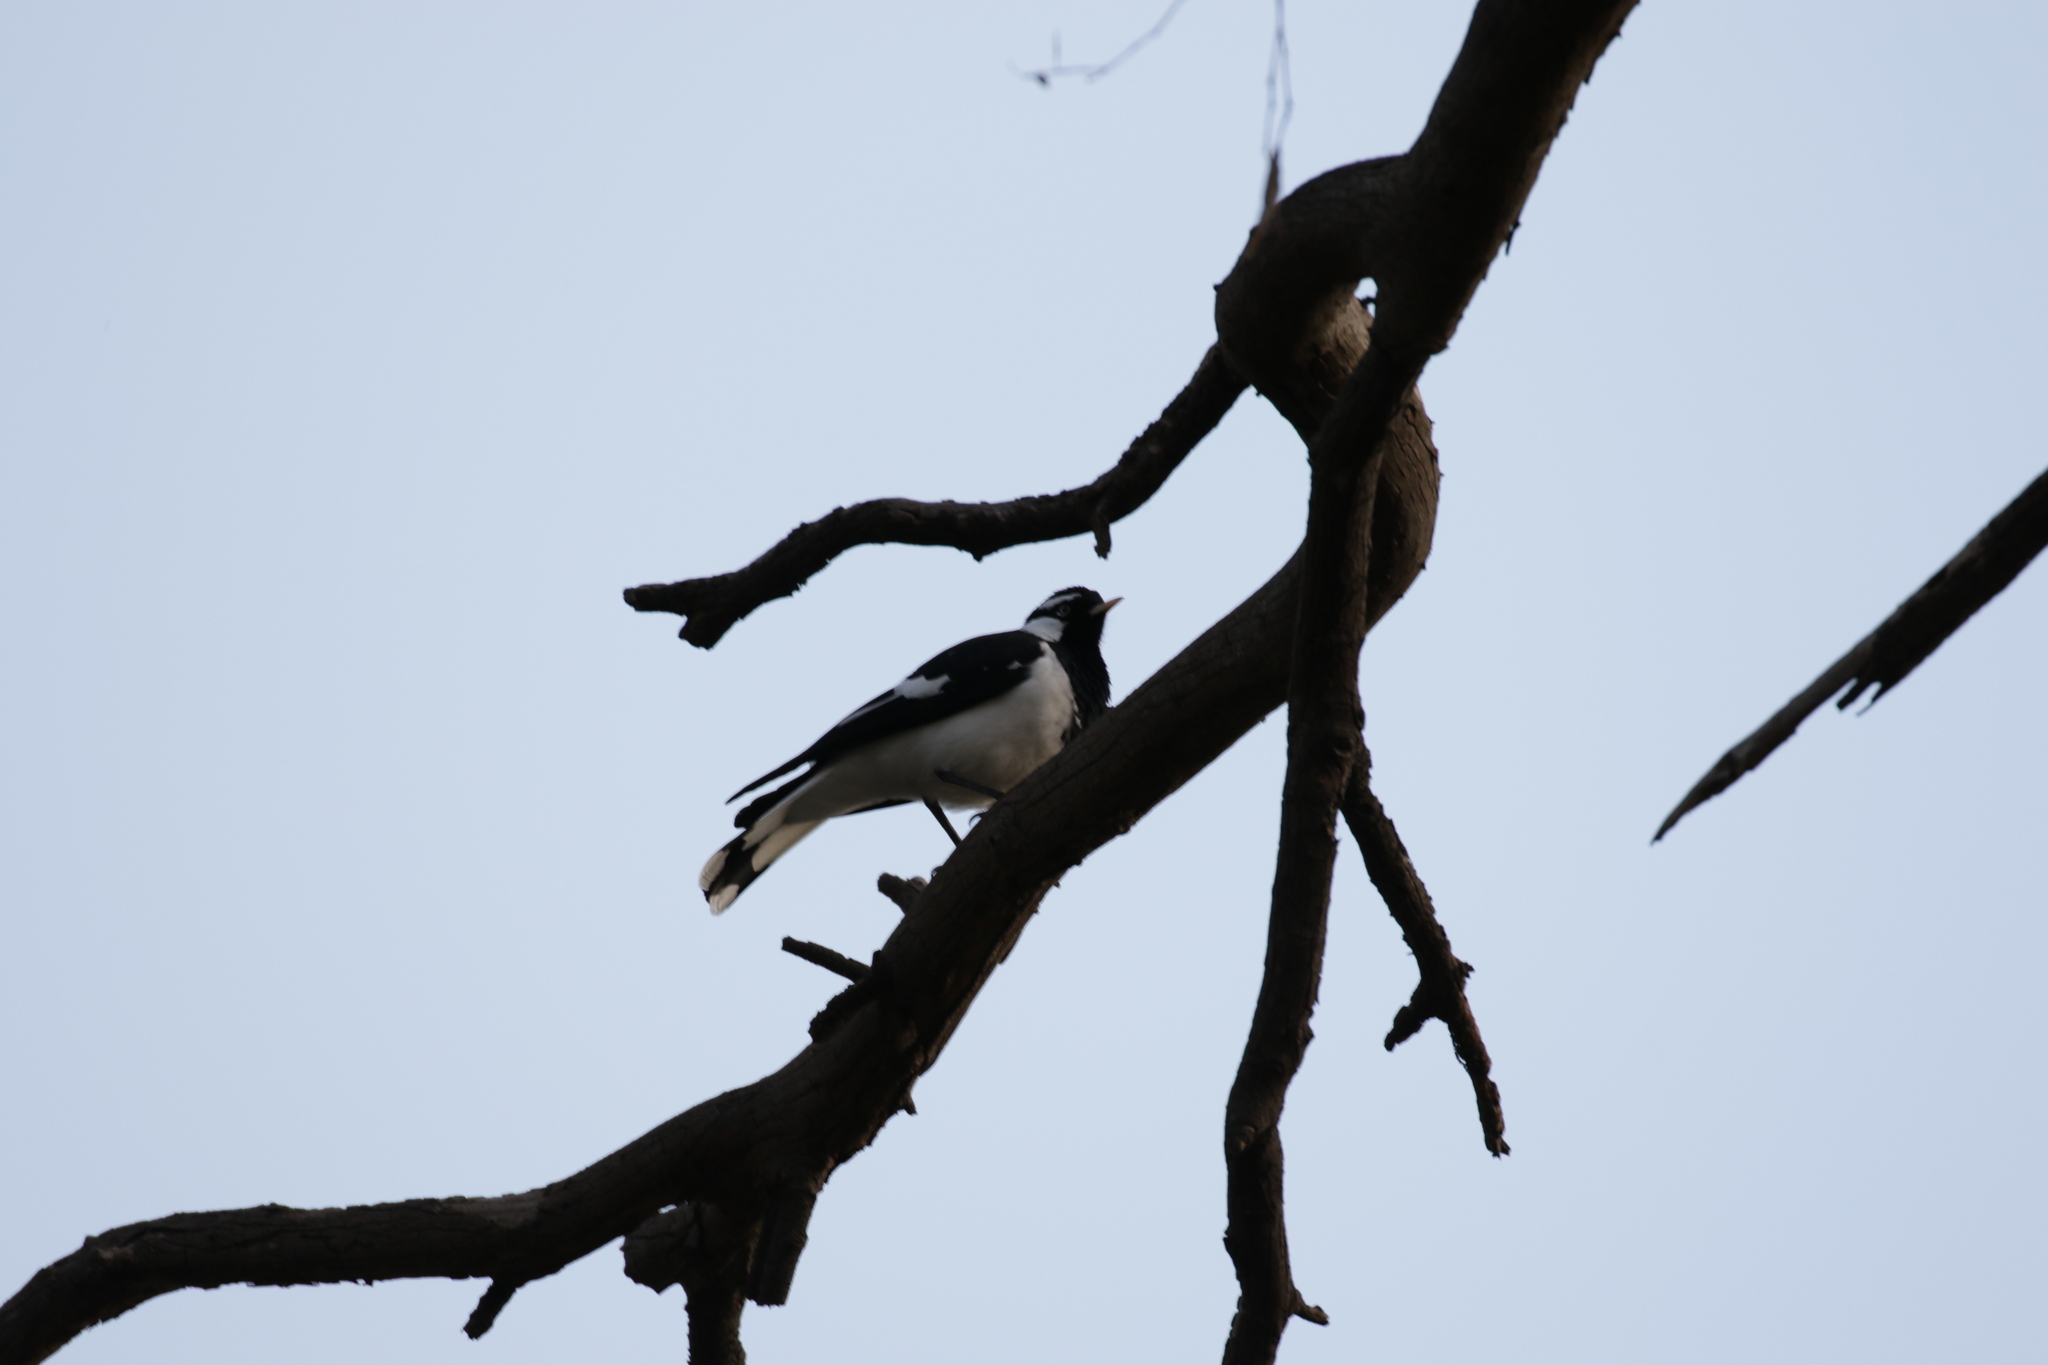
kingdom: Animalia
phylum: Chordata
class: Aves
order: Passeriformes
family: Monarchidae
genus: Grallina
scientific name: Grallina cyanoleuca
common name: Magpie-lark
